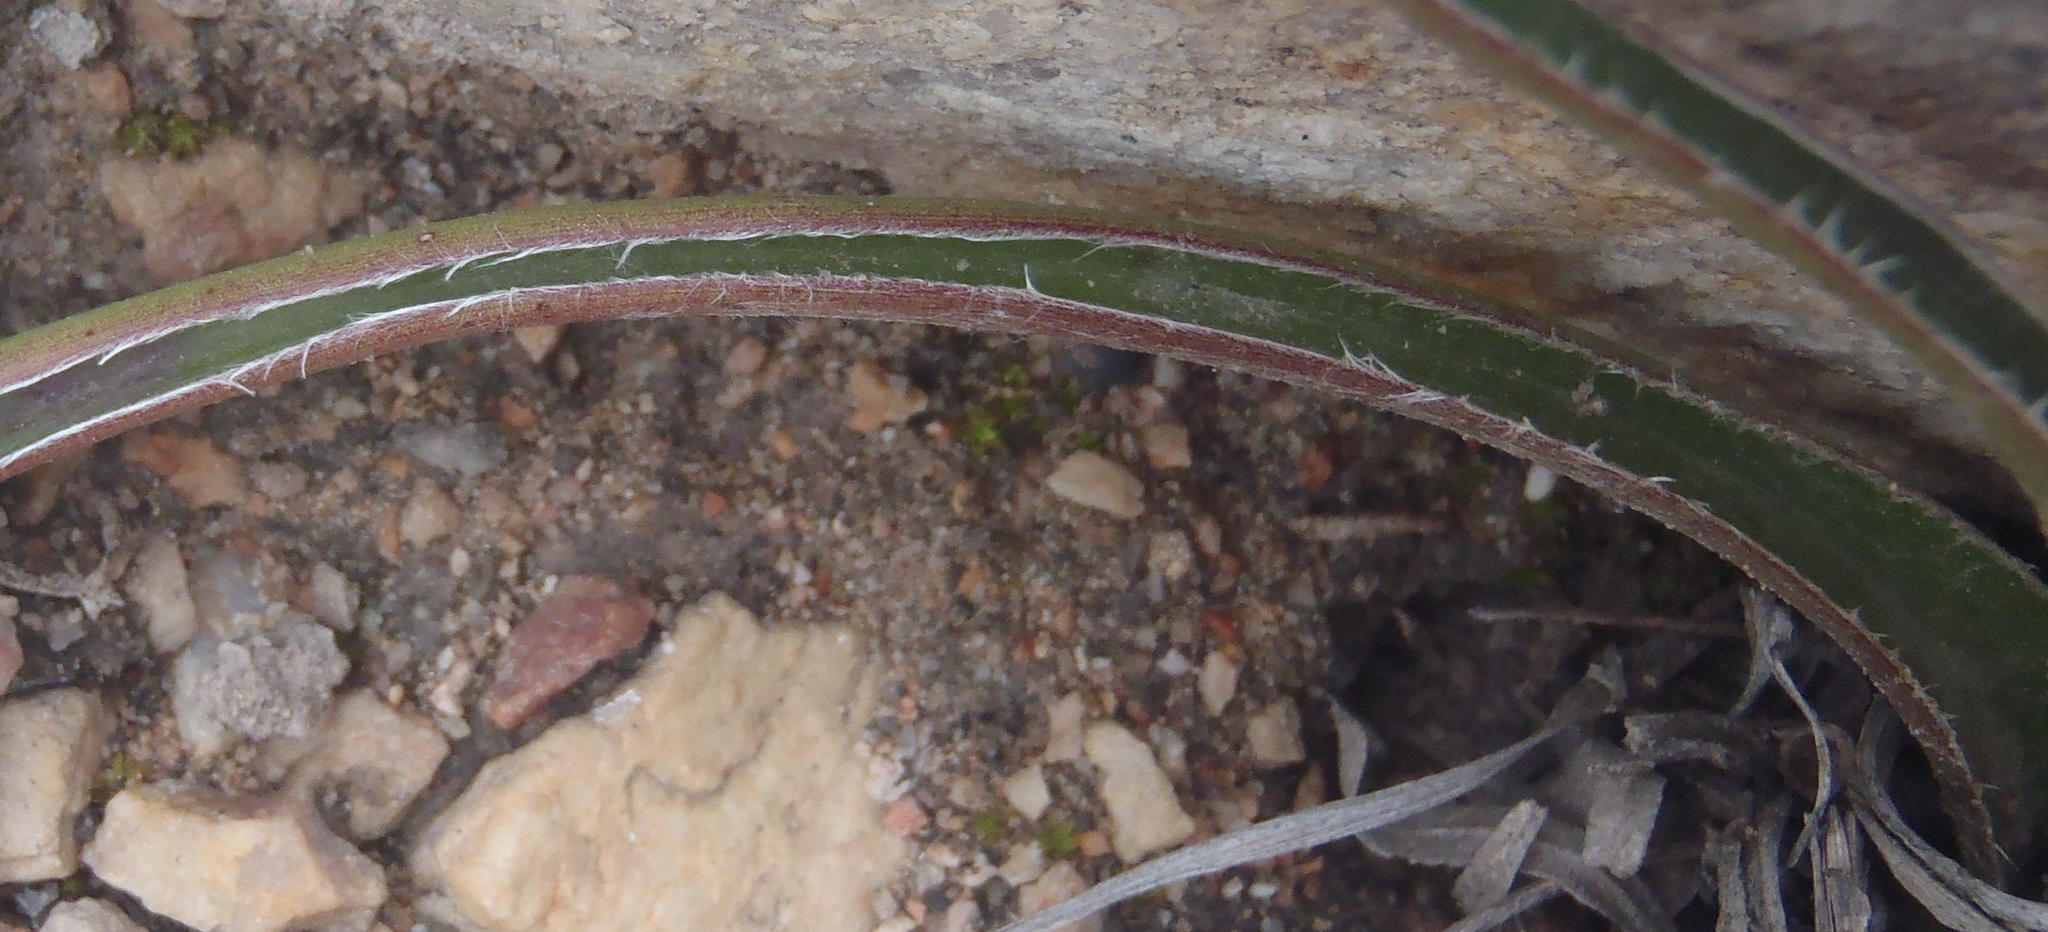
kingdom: Plantae
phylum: Tracheophyta
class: Liliopsida
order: Commelinales
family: Commelinaceae
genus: Cyanotis
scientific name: Cyanotis speciosa
